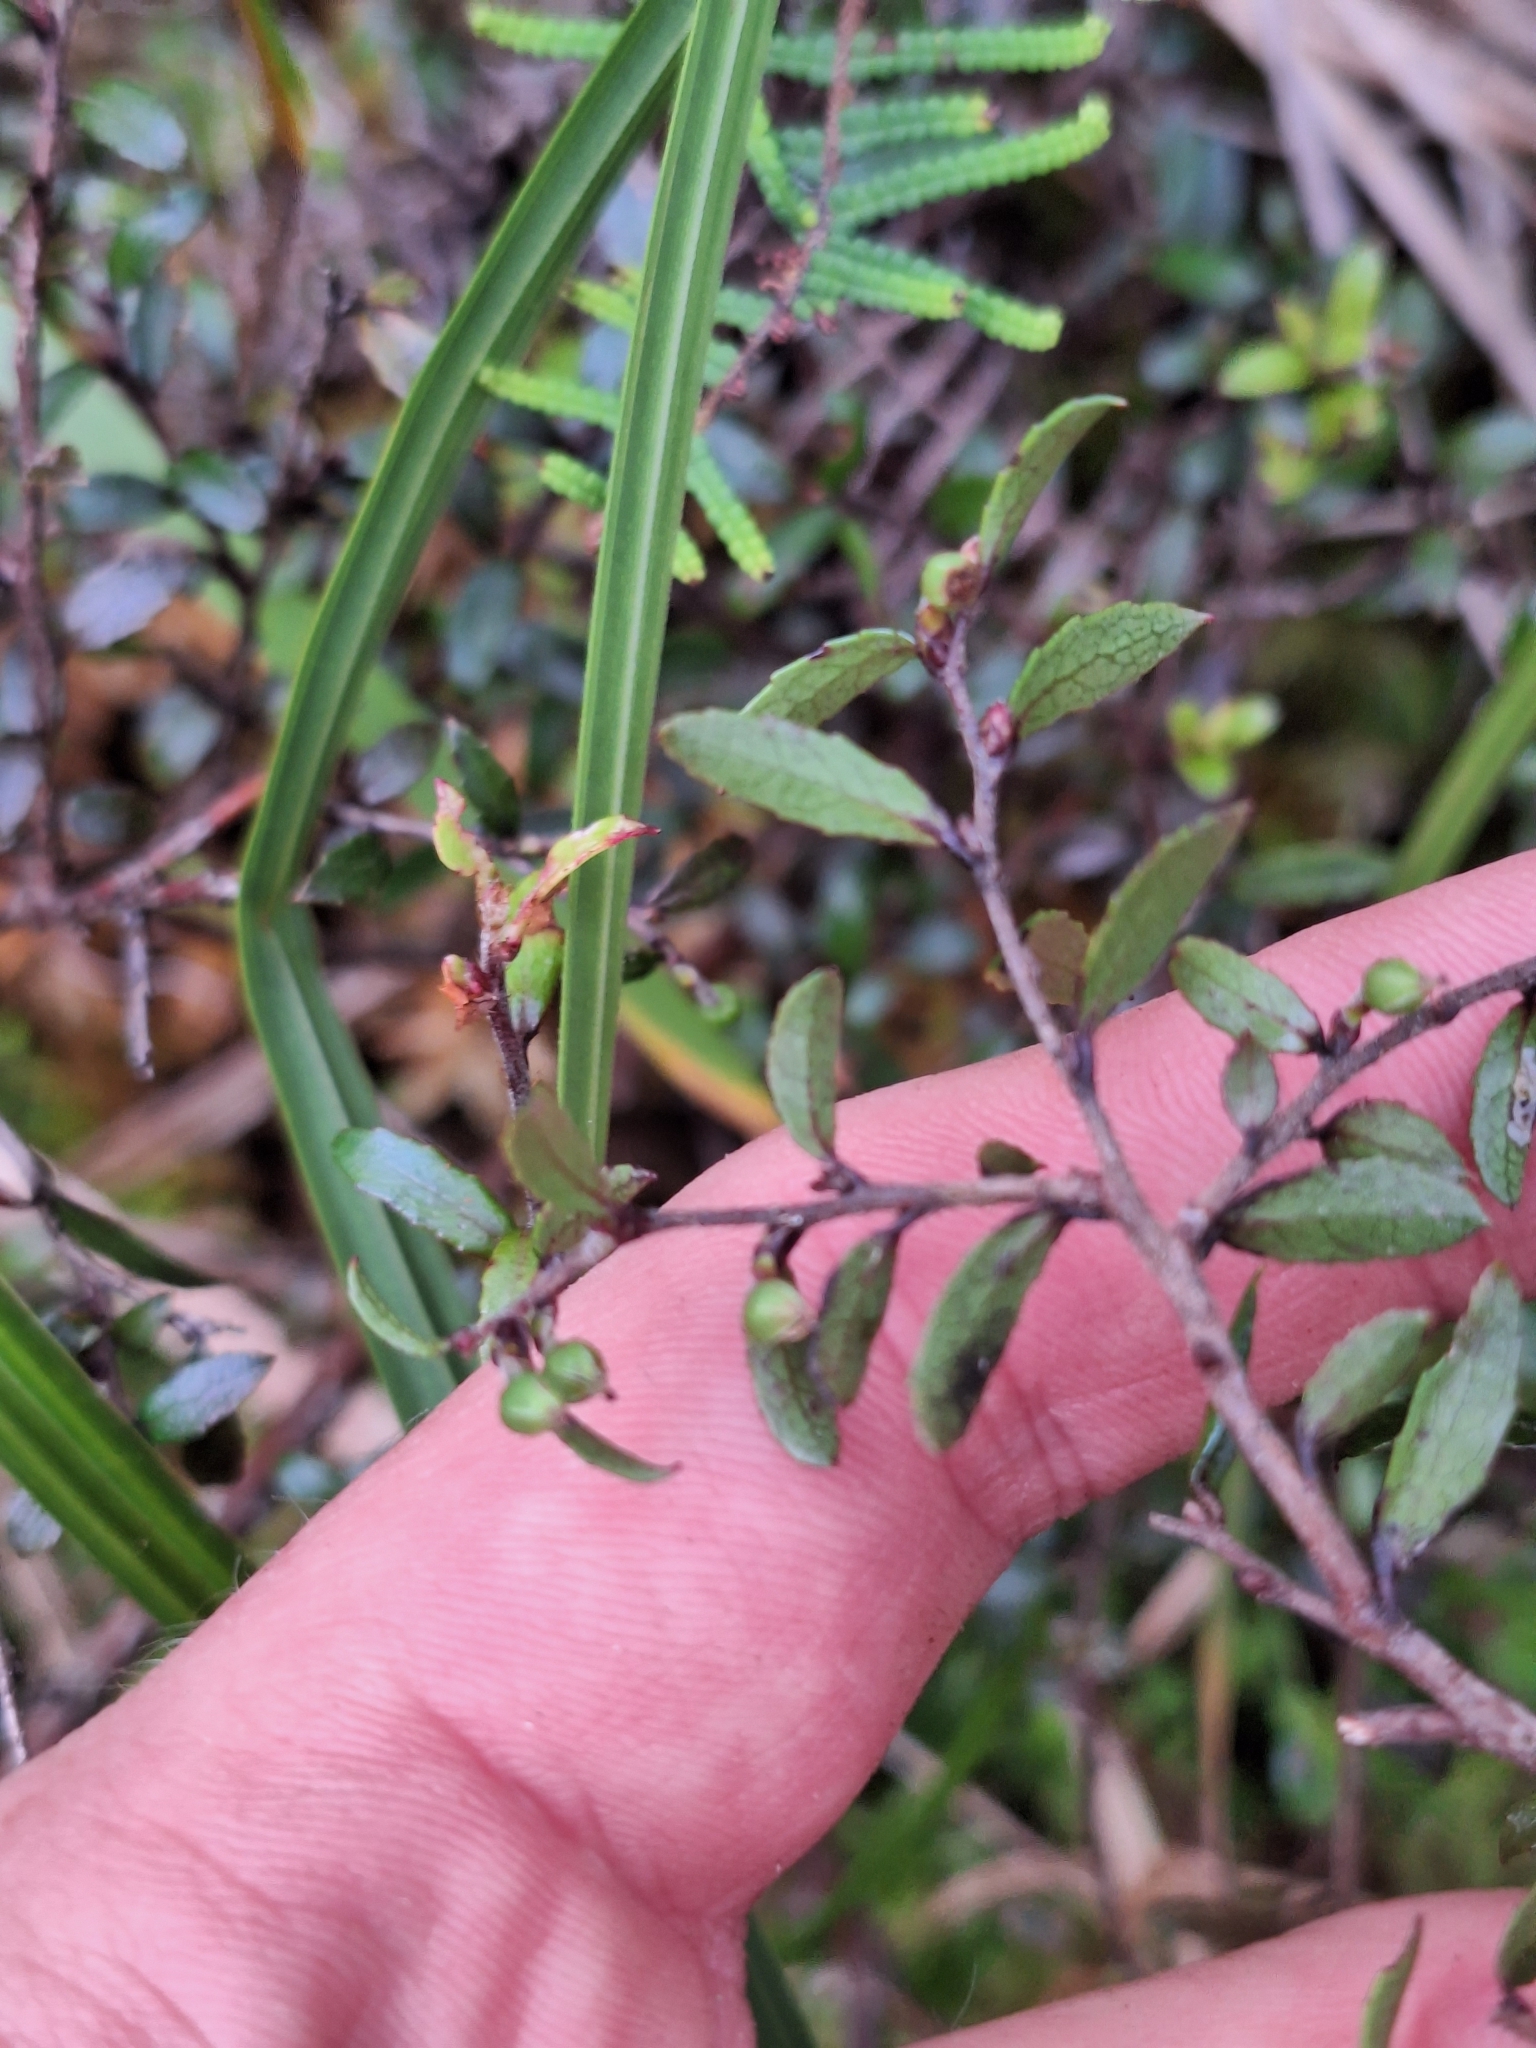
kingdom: Plantae
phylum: Tracheophyta
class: Magnoliopsida
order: Ericales
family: Ericaceae
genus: Gaultheria
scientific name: Gaultheria macrostigma
